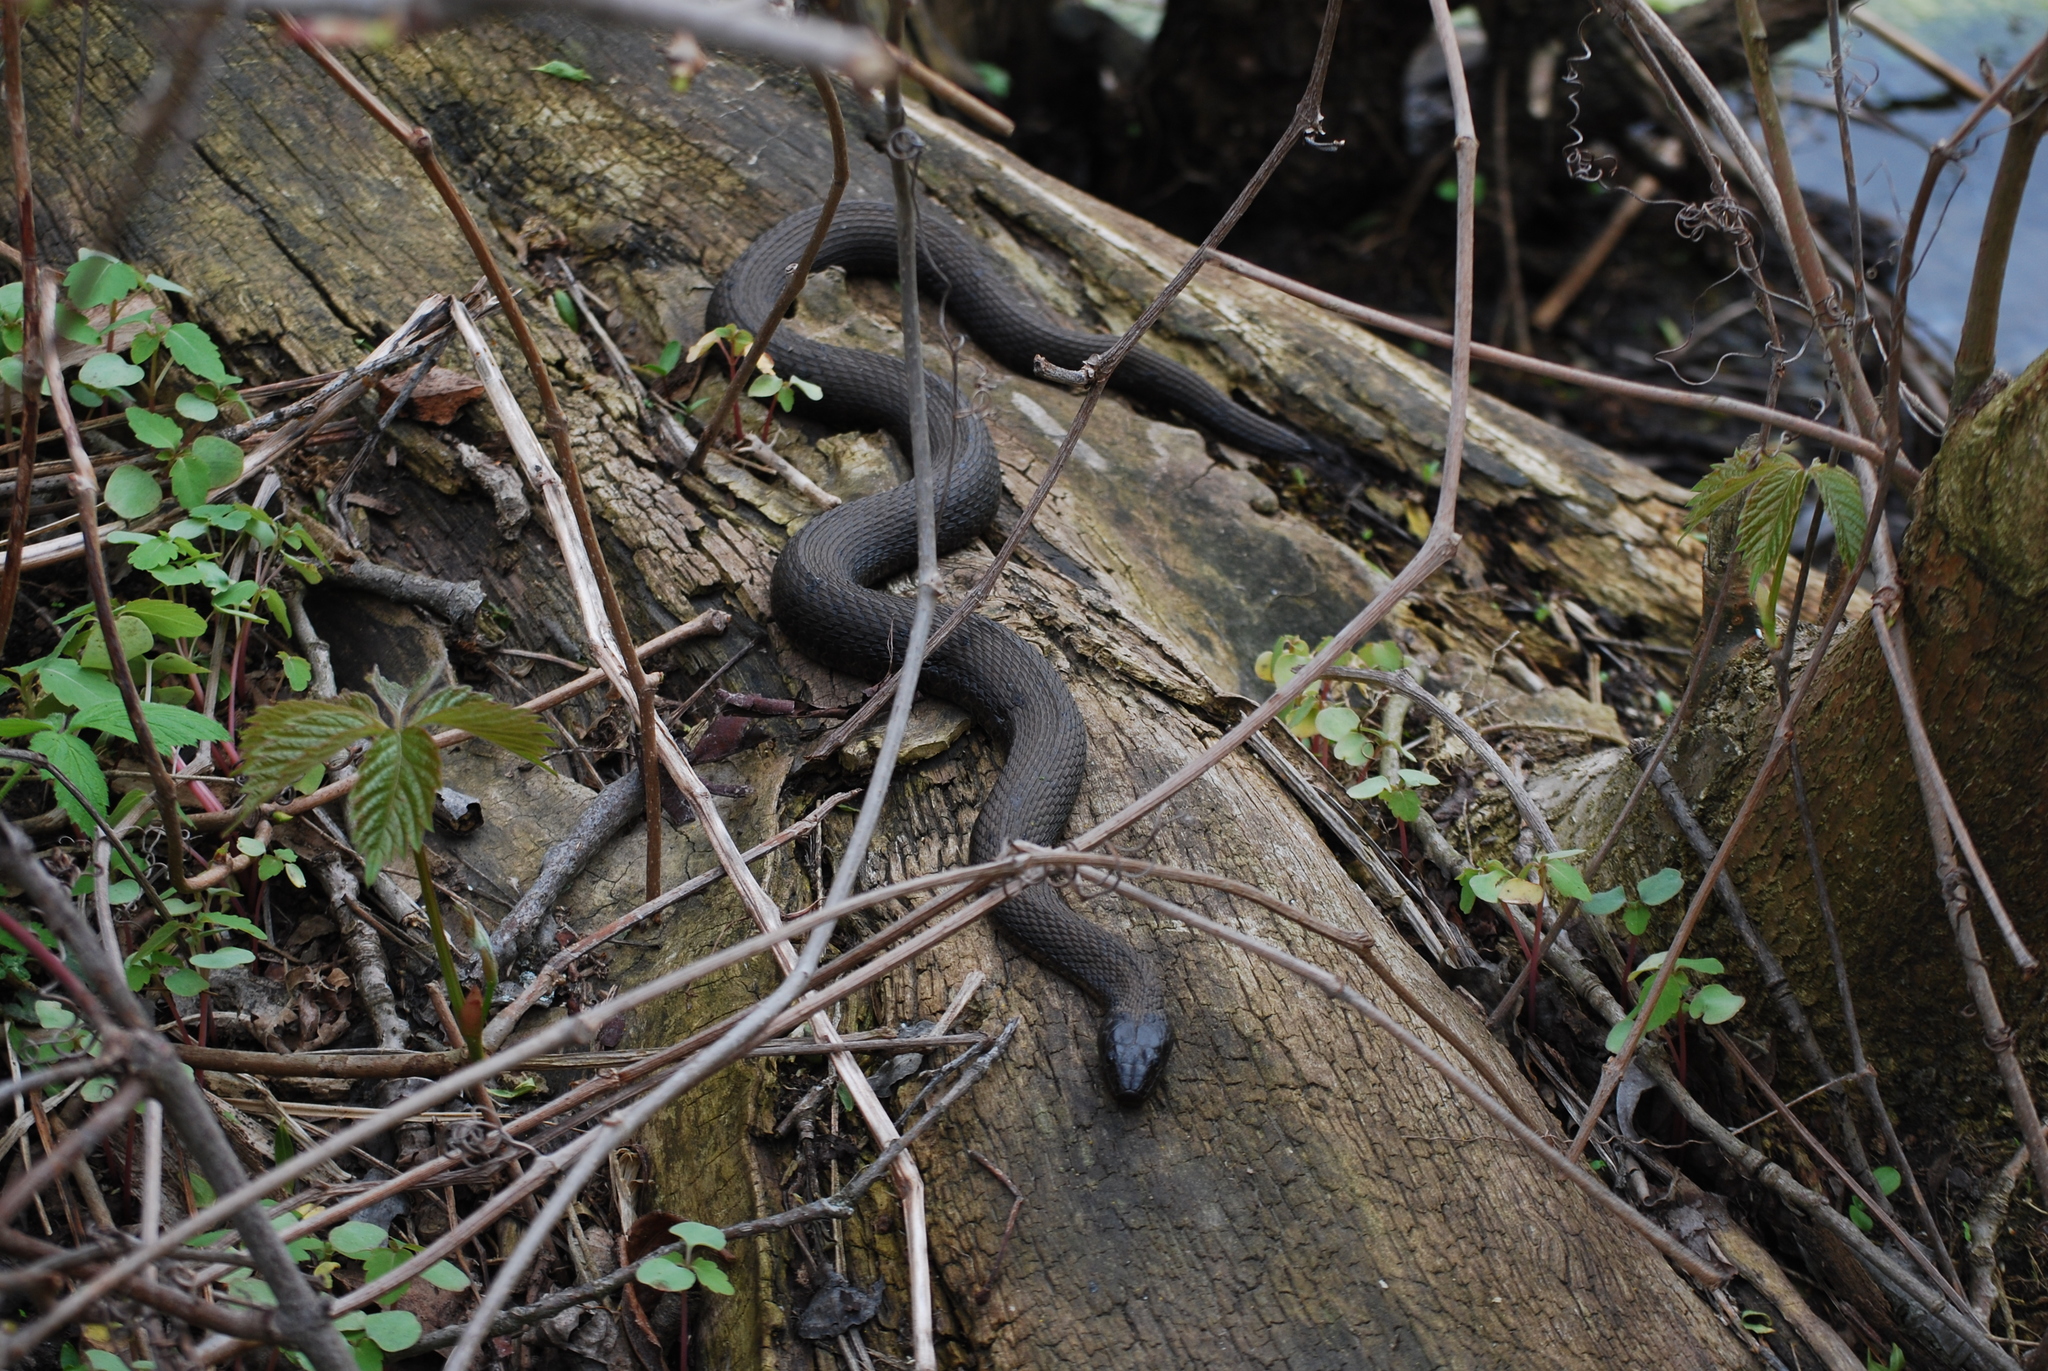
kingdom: Animalia
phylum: Chordata
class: Squamata
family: Colubridae
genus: Nerodia
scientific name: Nerodia sipedon
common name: Northern water snake
